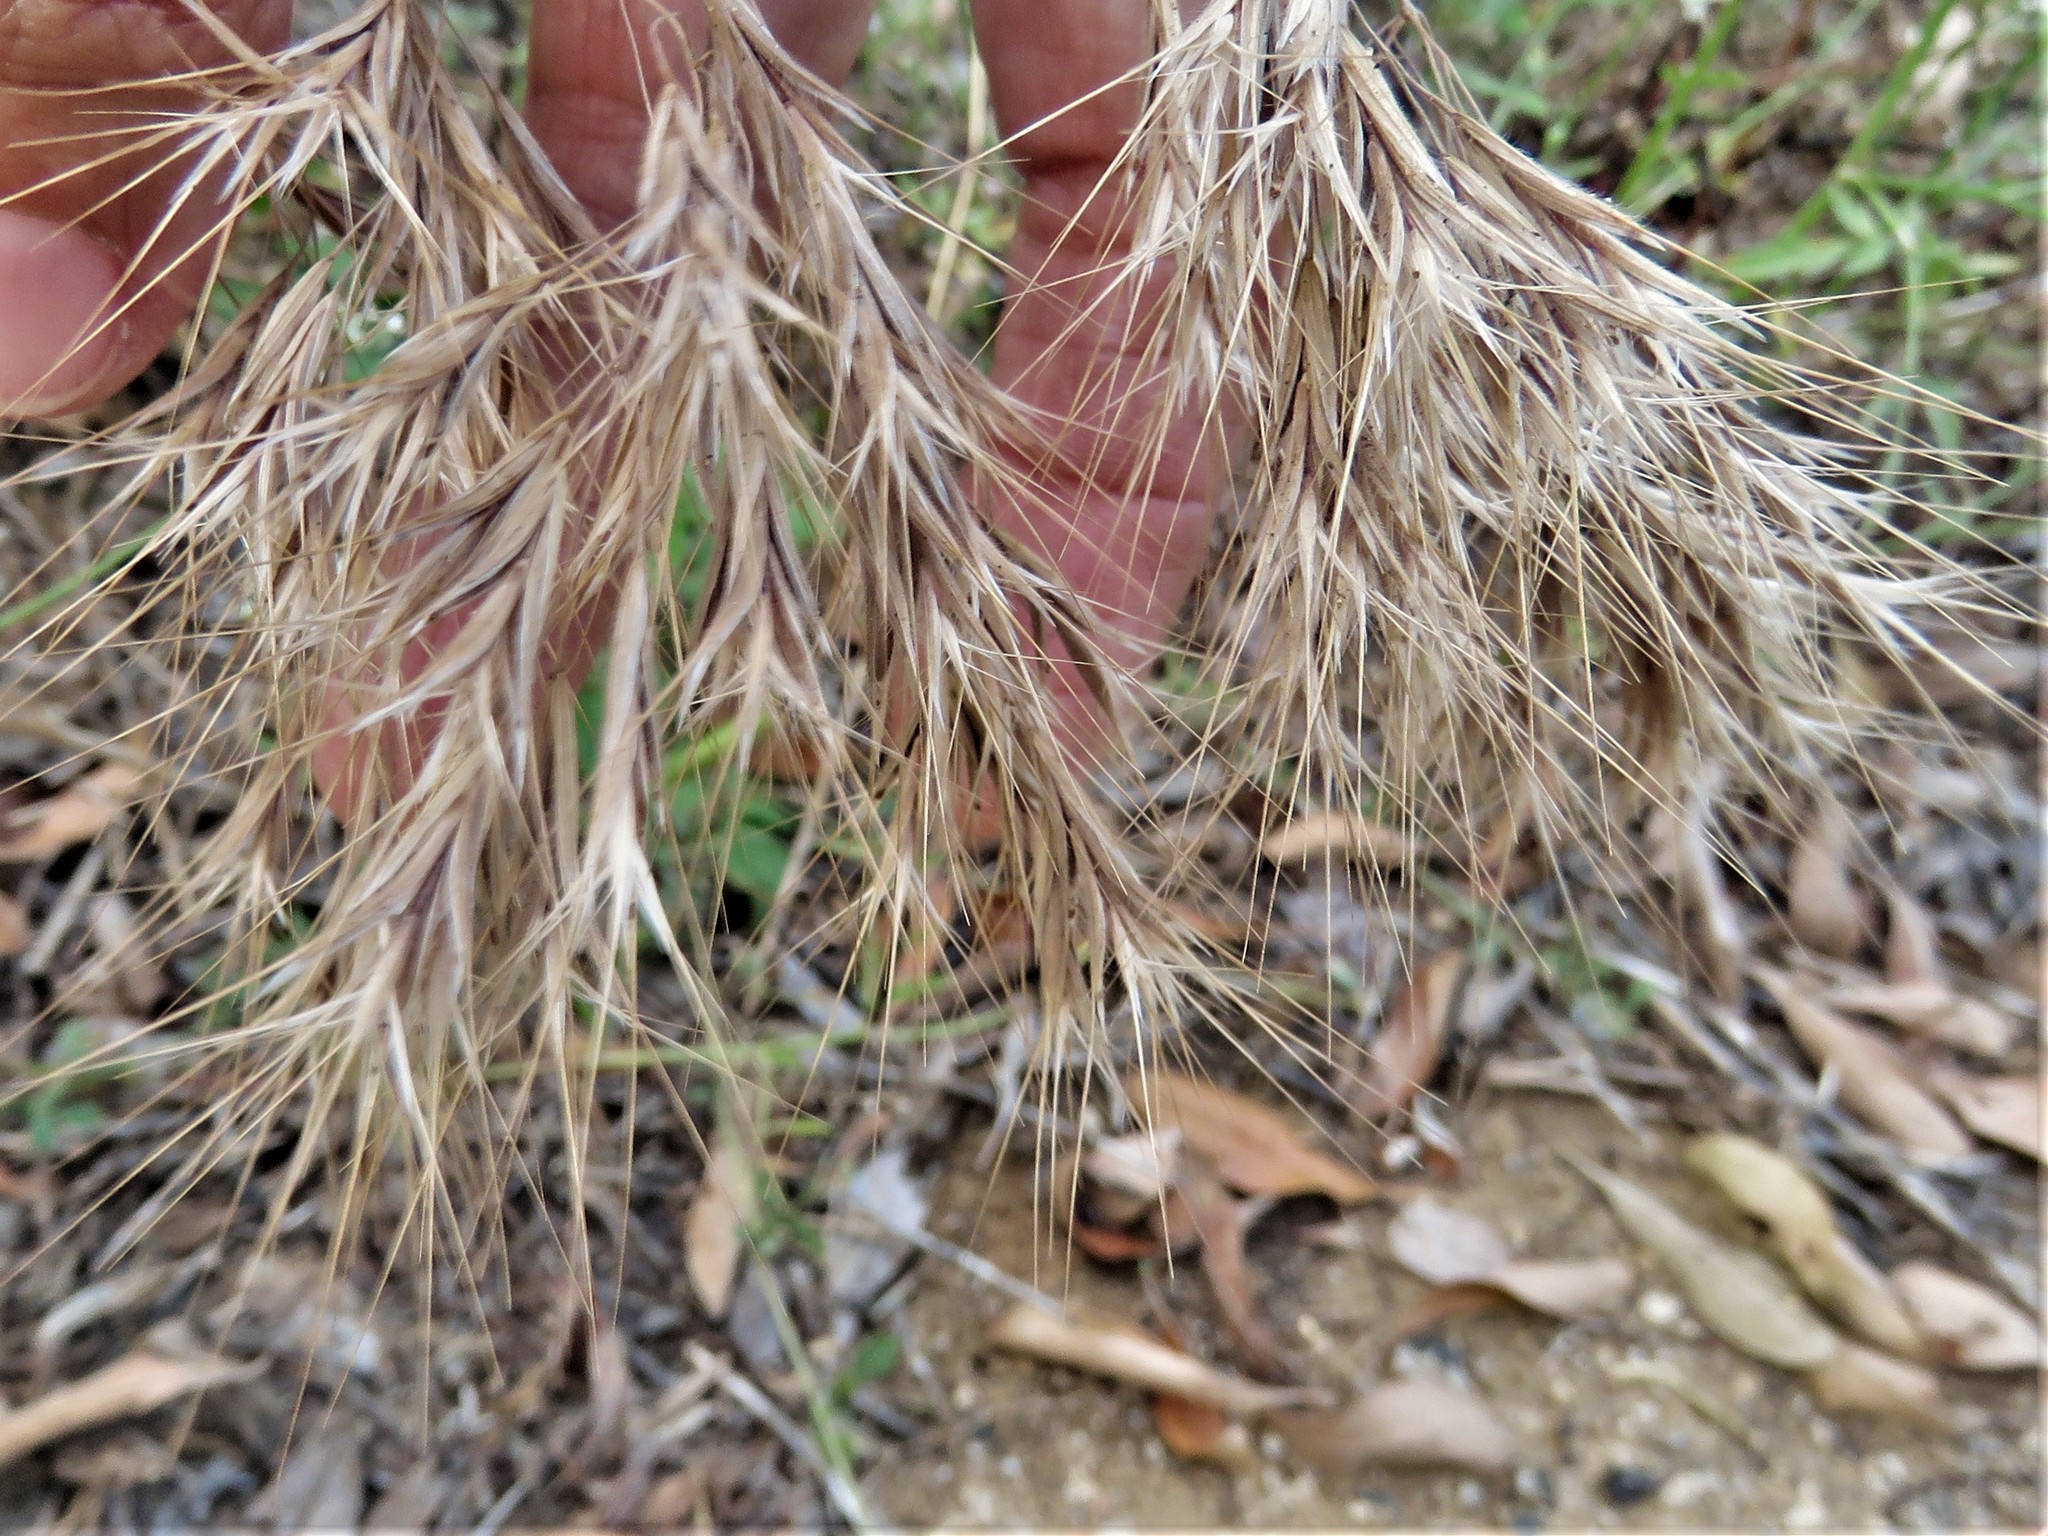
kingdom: Plantae
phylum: Tracheophyta
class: Liliopsida
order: Poales
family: Poaceae
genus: Bromus
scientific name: Bromus tectorum
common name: Cheatgrass
